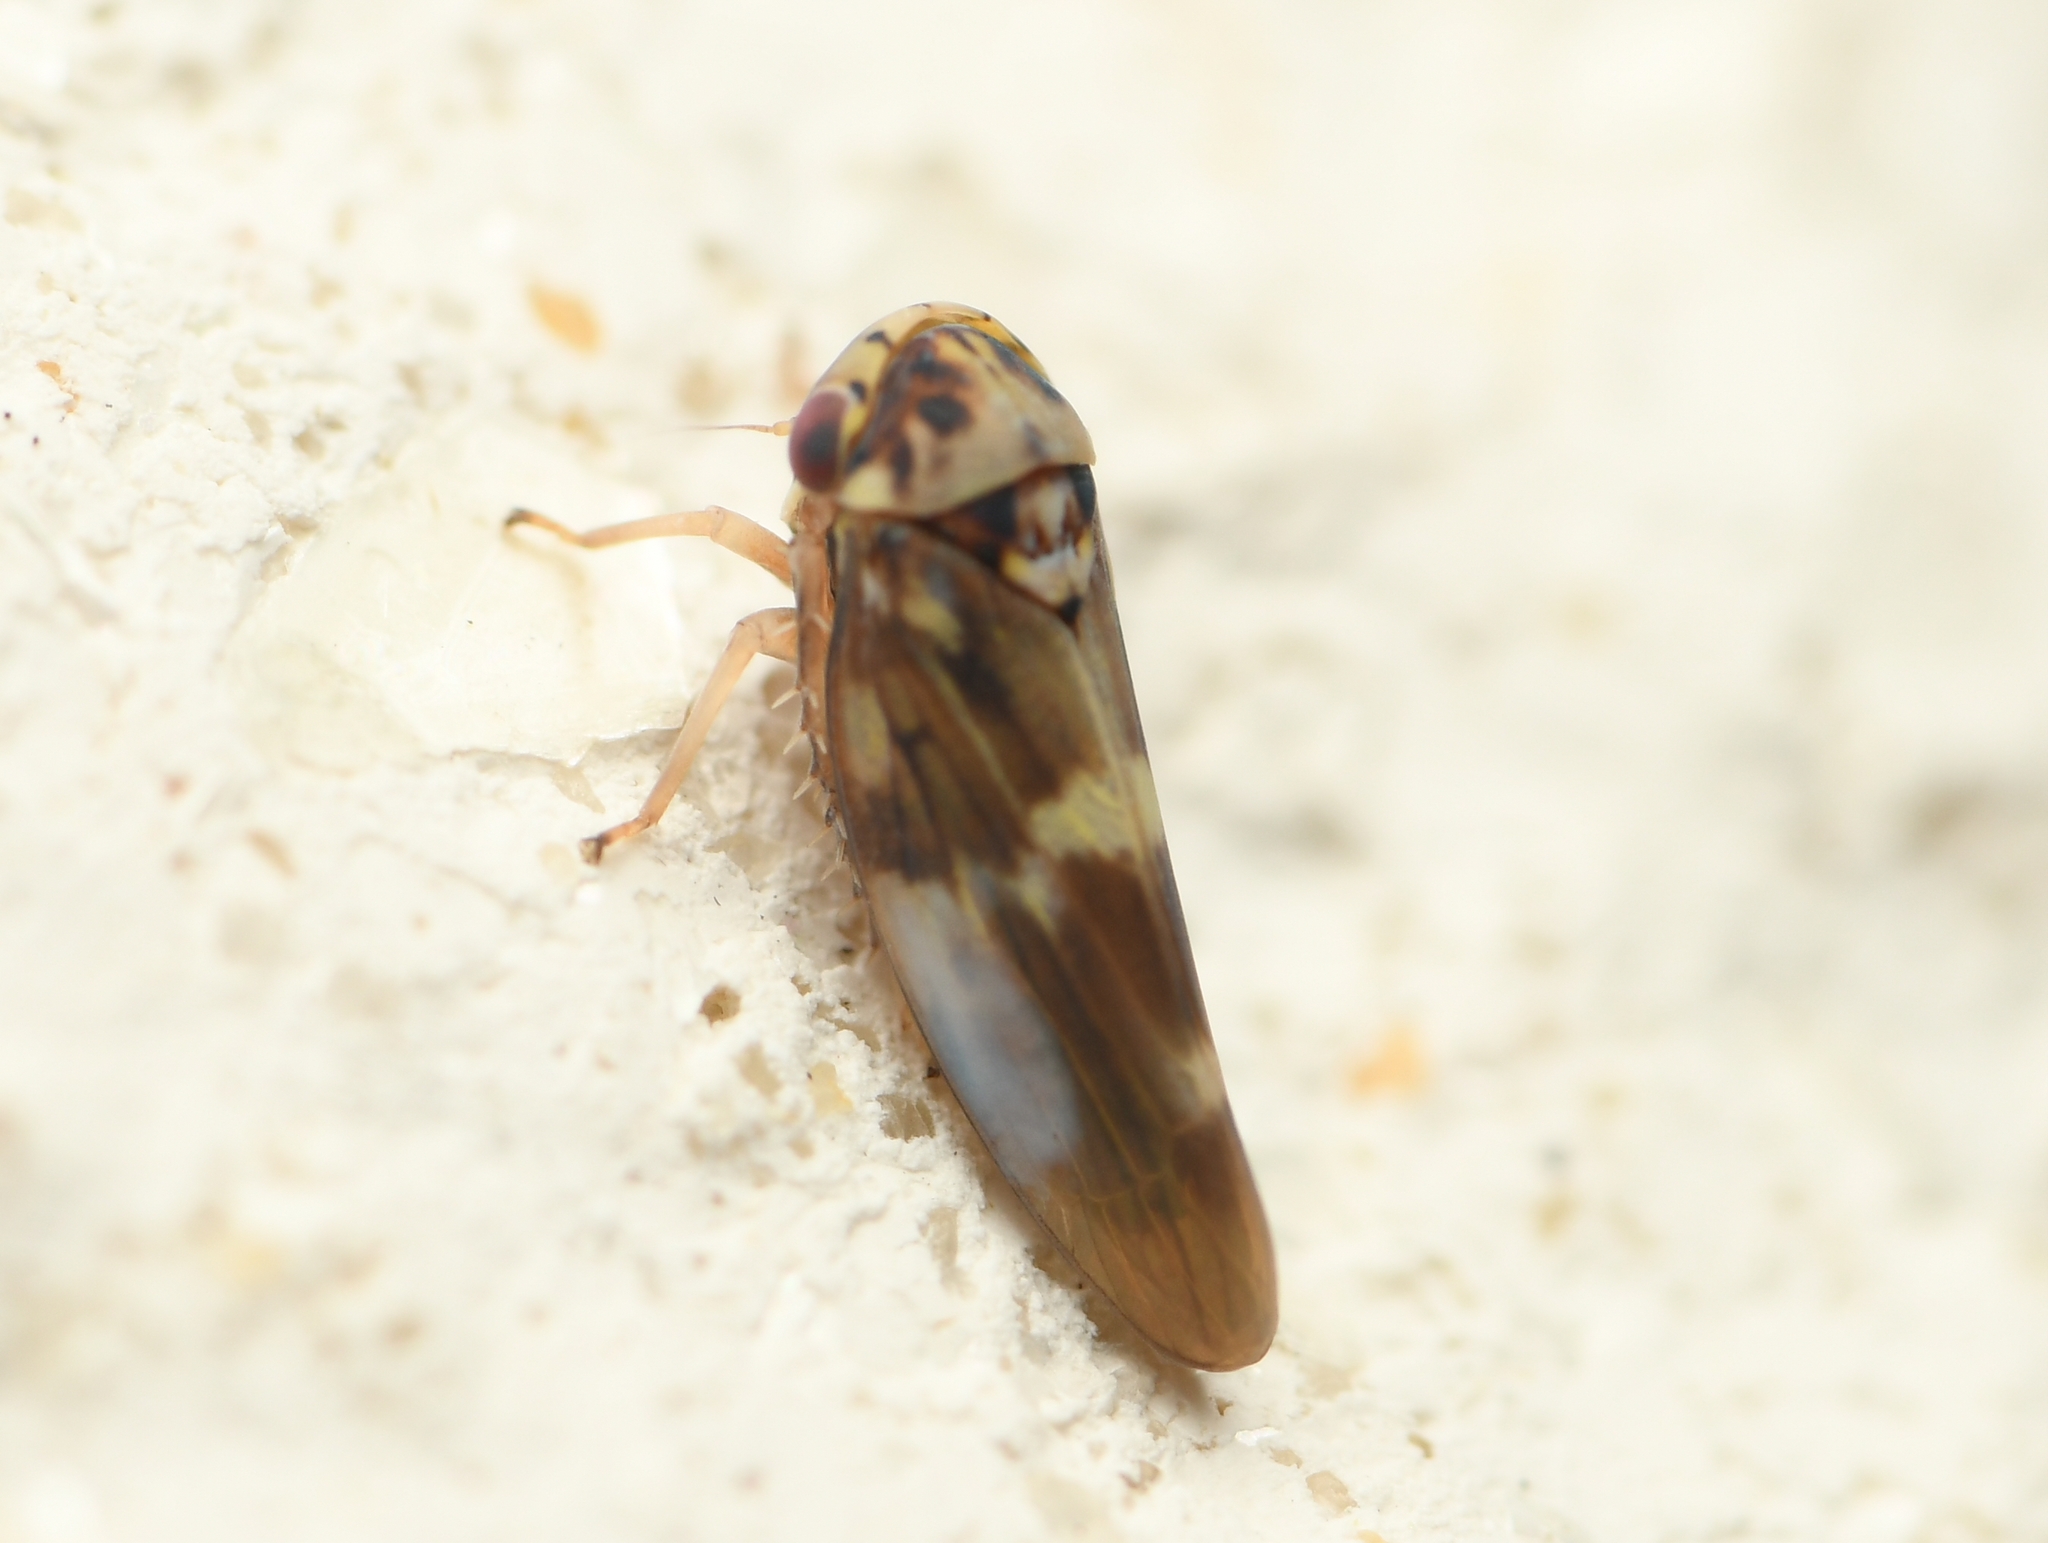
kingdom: Animalia
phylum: Arthropoda
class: Insecta
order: Hemiptera
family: Cicadellidae
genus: Agalliopsis
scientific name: Agalliopsis cervina
